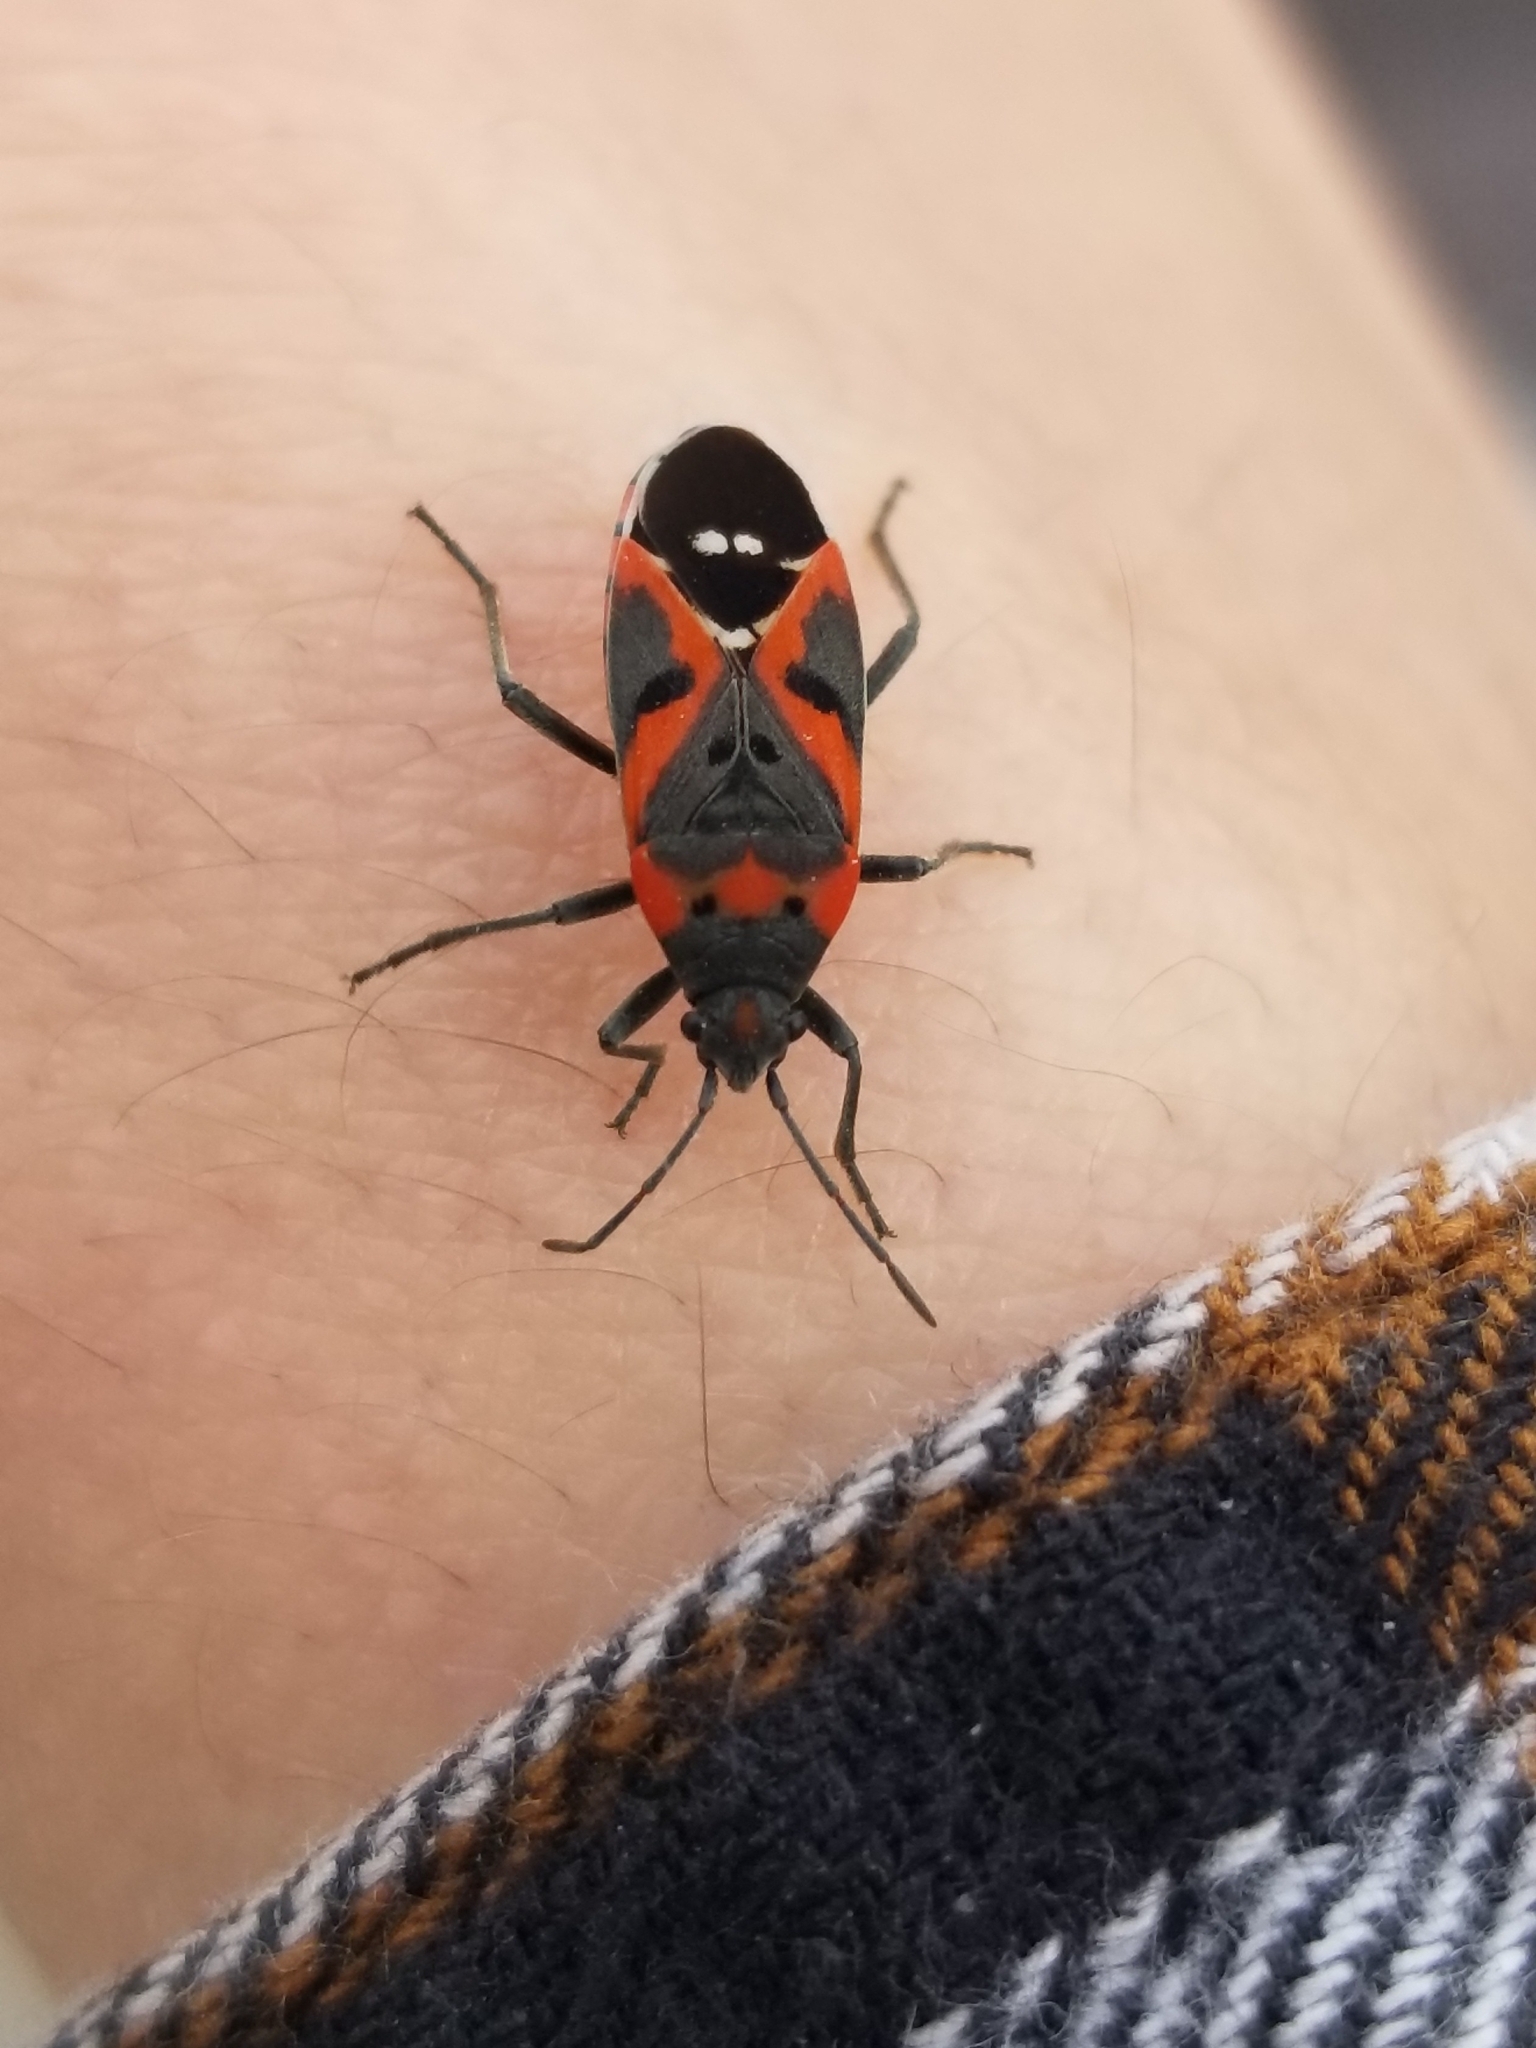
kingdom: Animalia
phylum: Arthropoda
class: Insecta
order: Hemiptera
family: Lygaeidae
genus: Lygaeus
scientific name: Lygaeus kalmii
